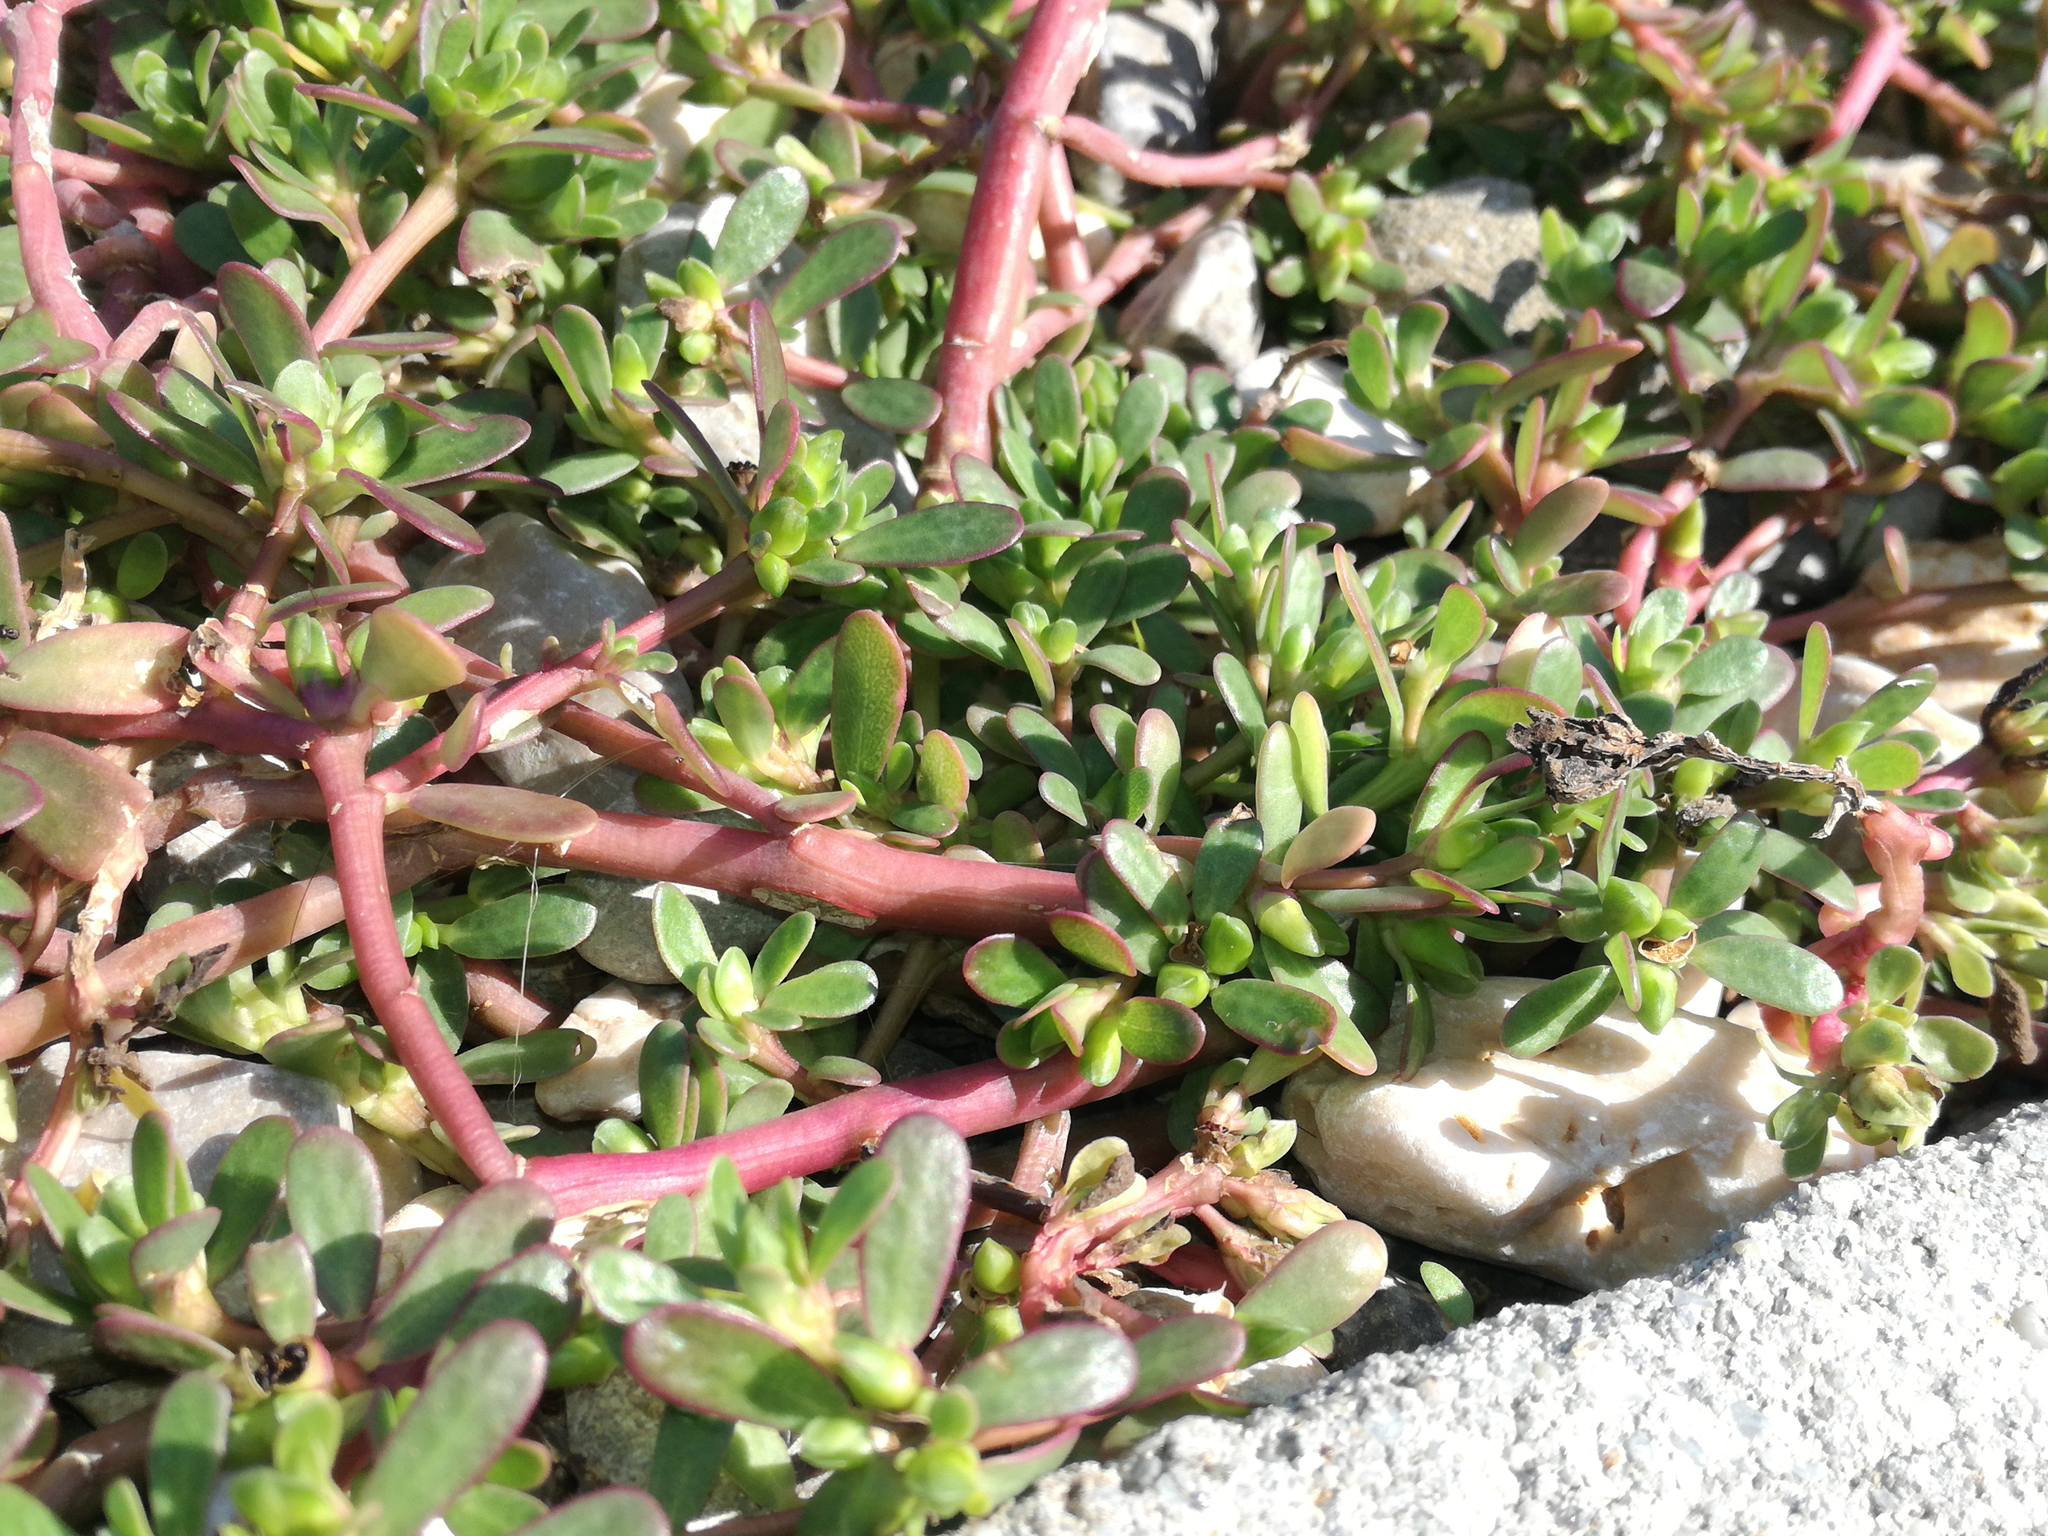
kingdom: Plantae
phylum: Tracheophyta
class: Magnoliopsida
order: Caryophyllales
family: Portulacaceae
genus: Portulaca
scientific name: Portulaca oleracea
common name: Common purslane
